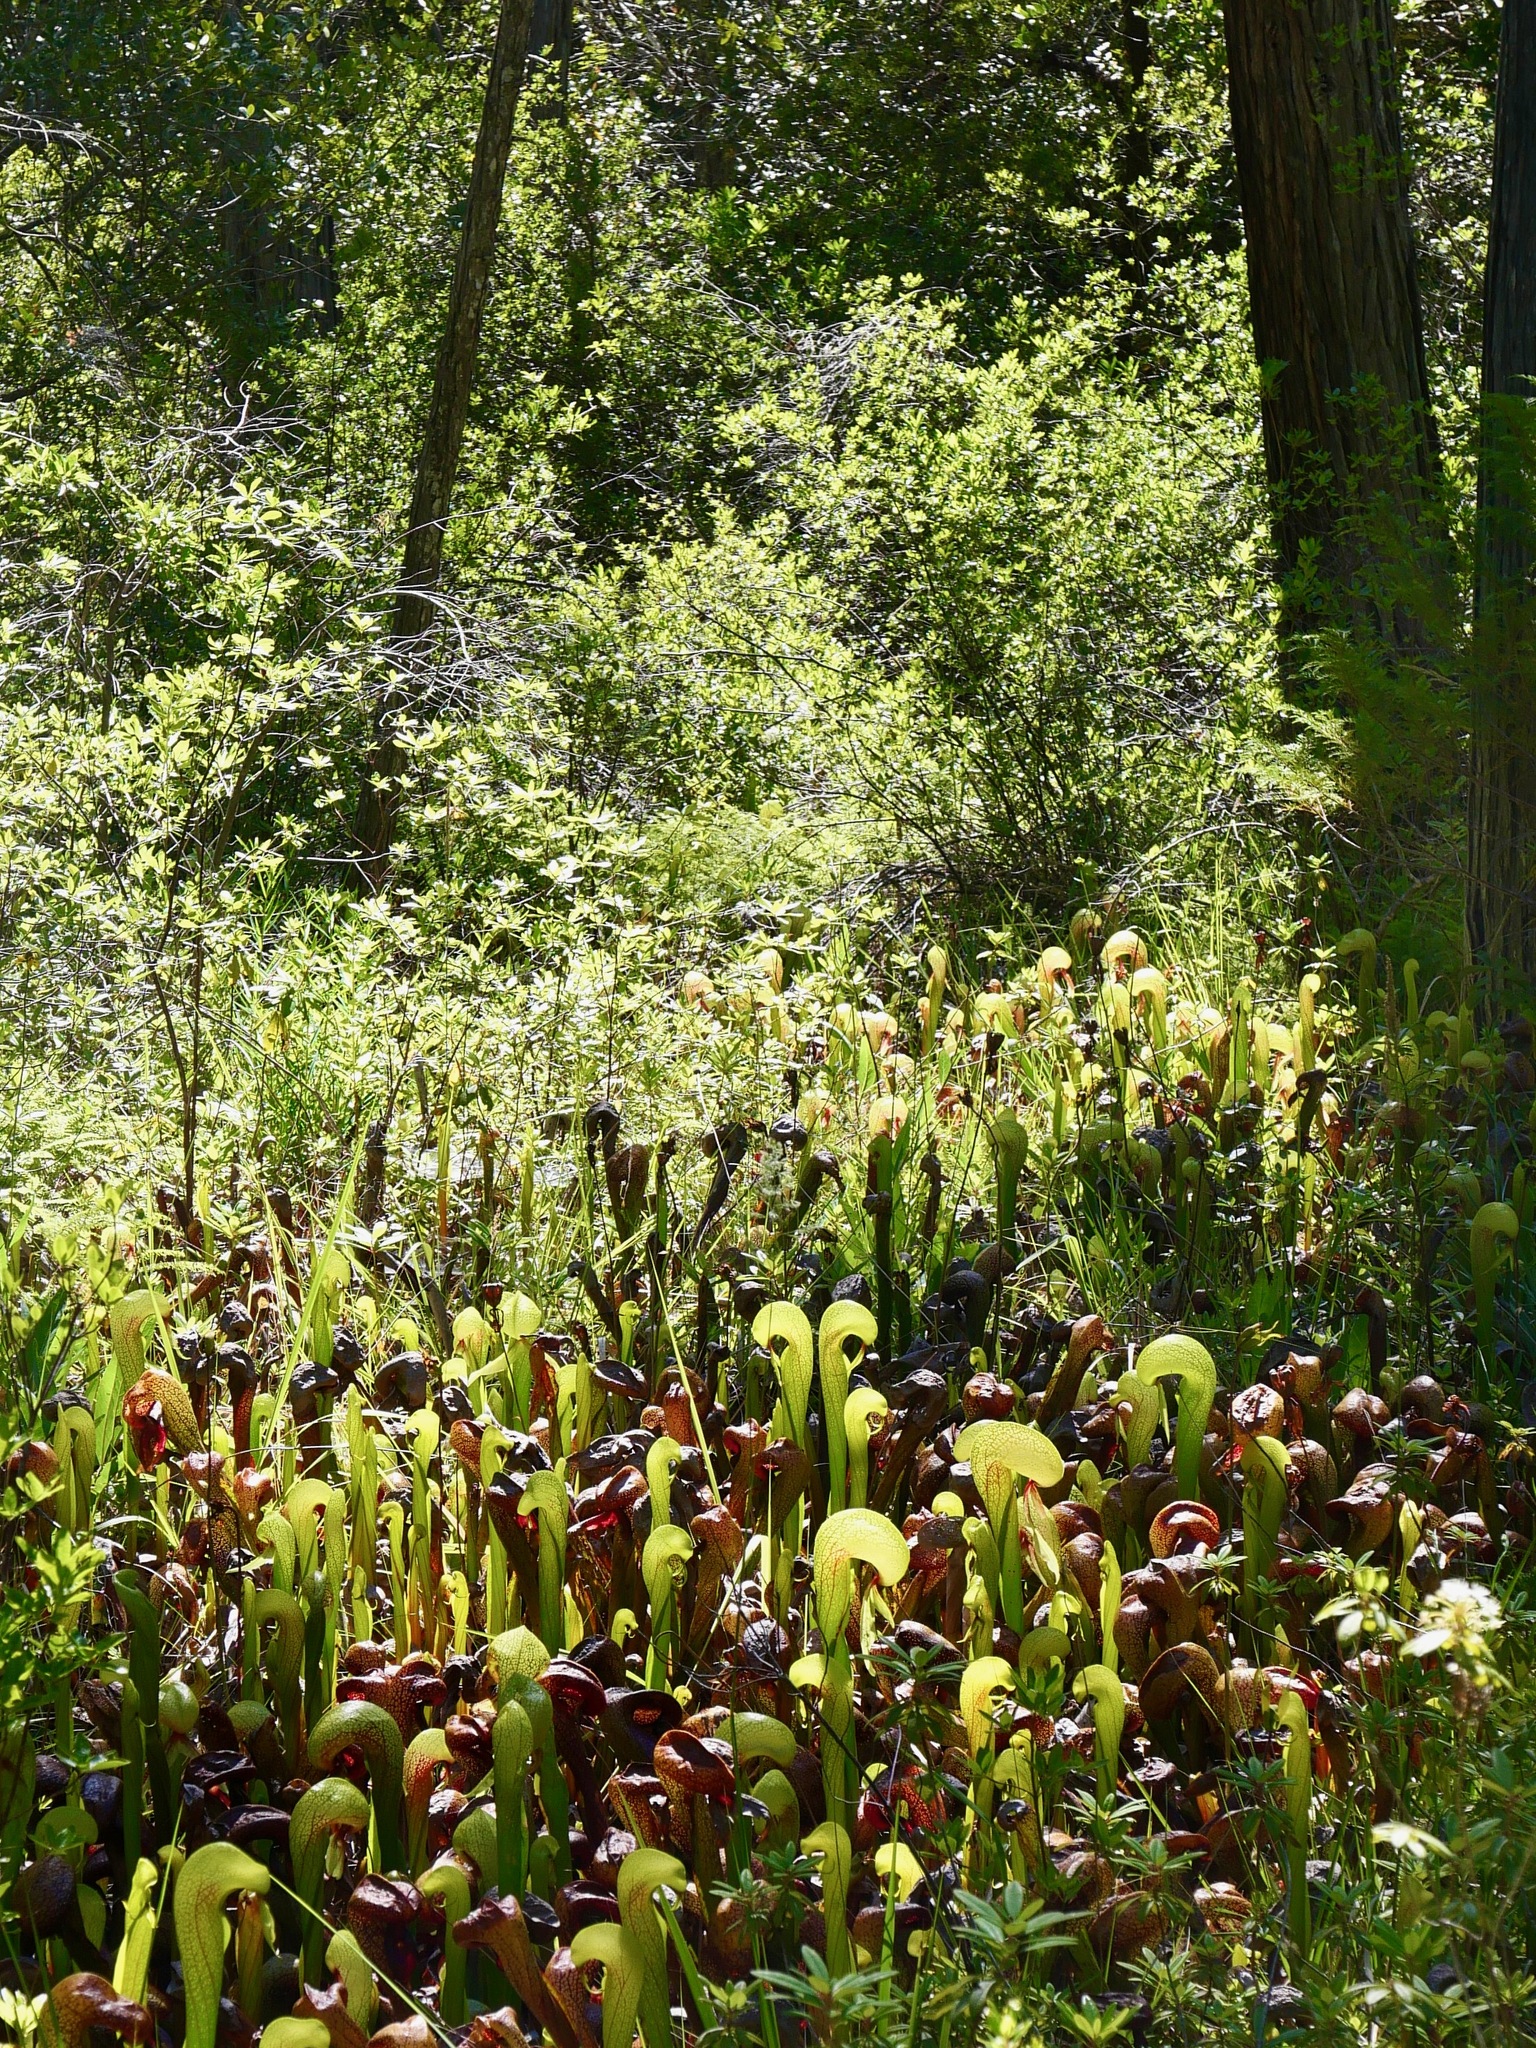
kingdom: Plantae
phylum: Tracheophyta
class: Magnoliopsida
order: Ericales
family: Sarraceniaceae
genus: Darlingtonia
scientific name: Darlingtonia californica
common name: California pitcher plant
